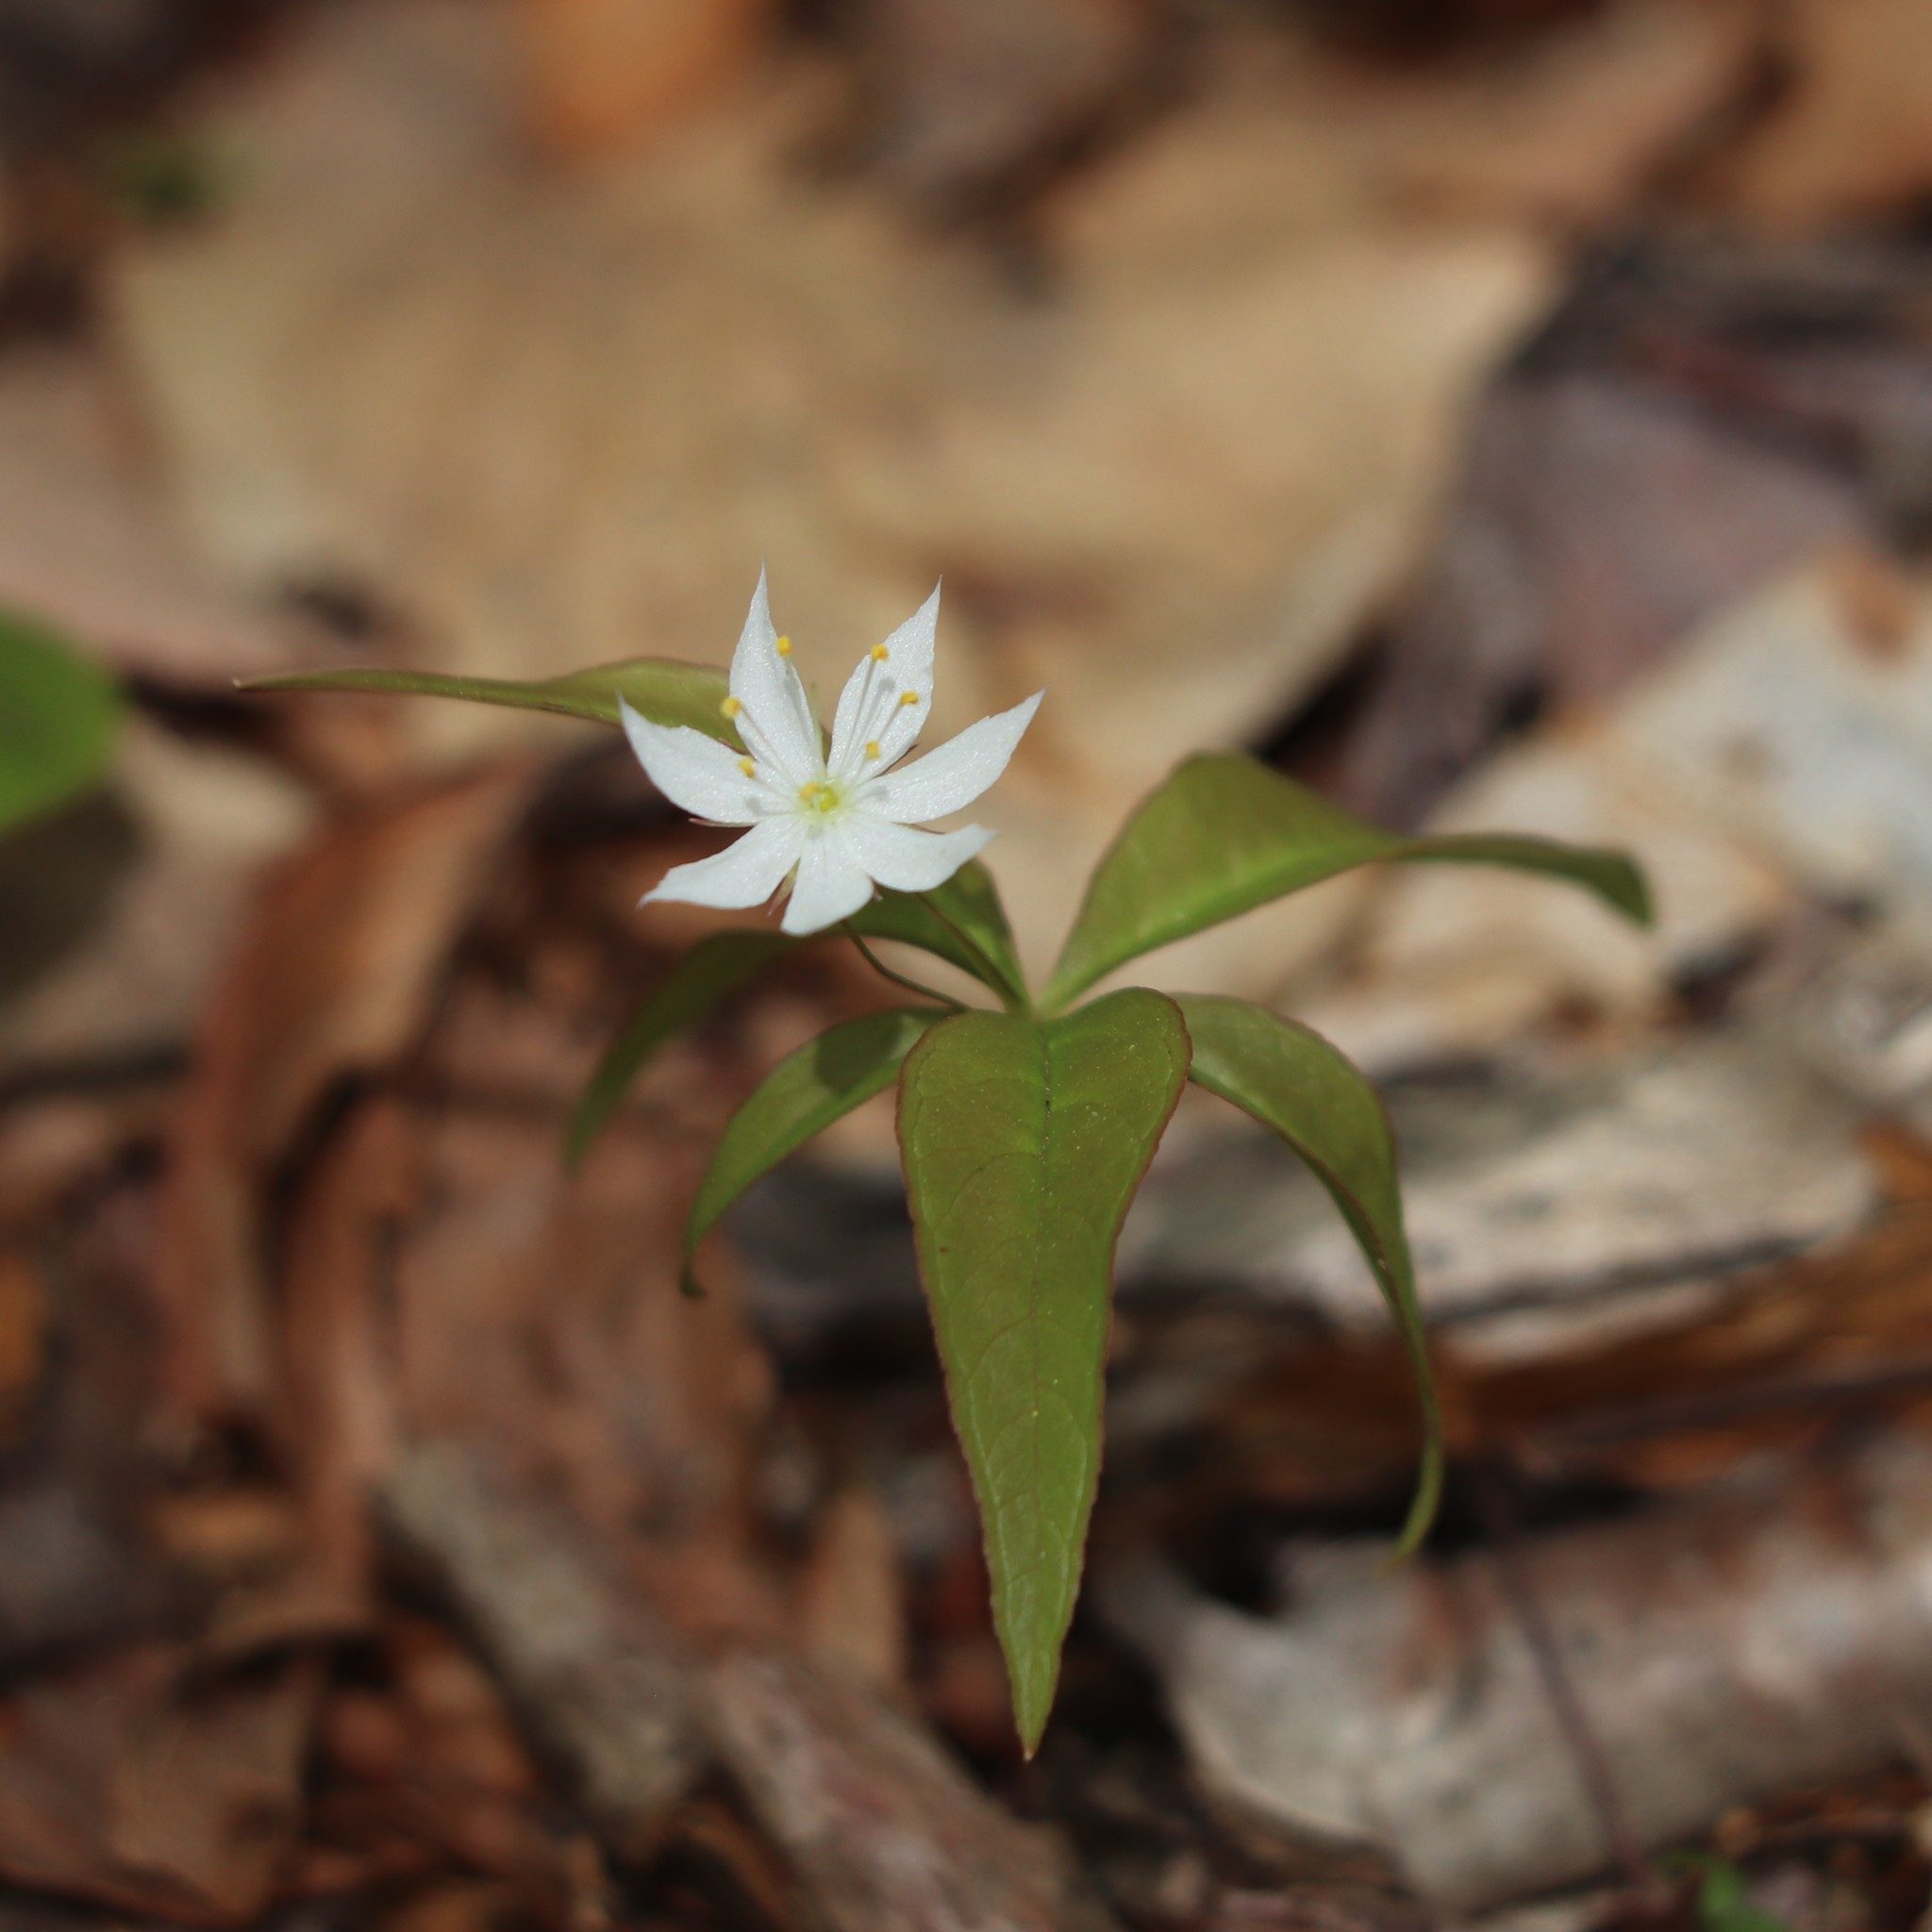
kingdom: Plantae
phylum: Tracheophyta
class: Magnoliopsida
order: Ericales
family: Primulaceae
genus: Lysimachia
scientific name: Lysimachia borealis
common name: American starflower
